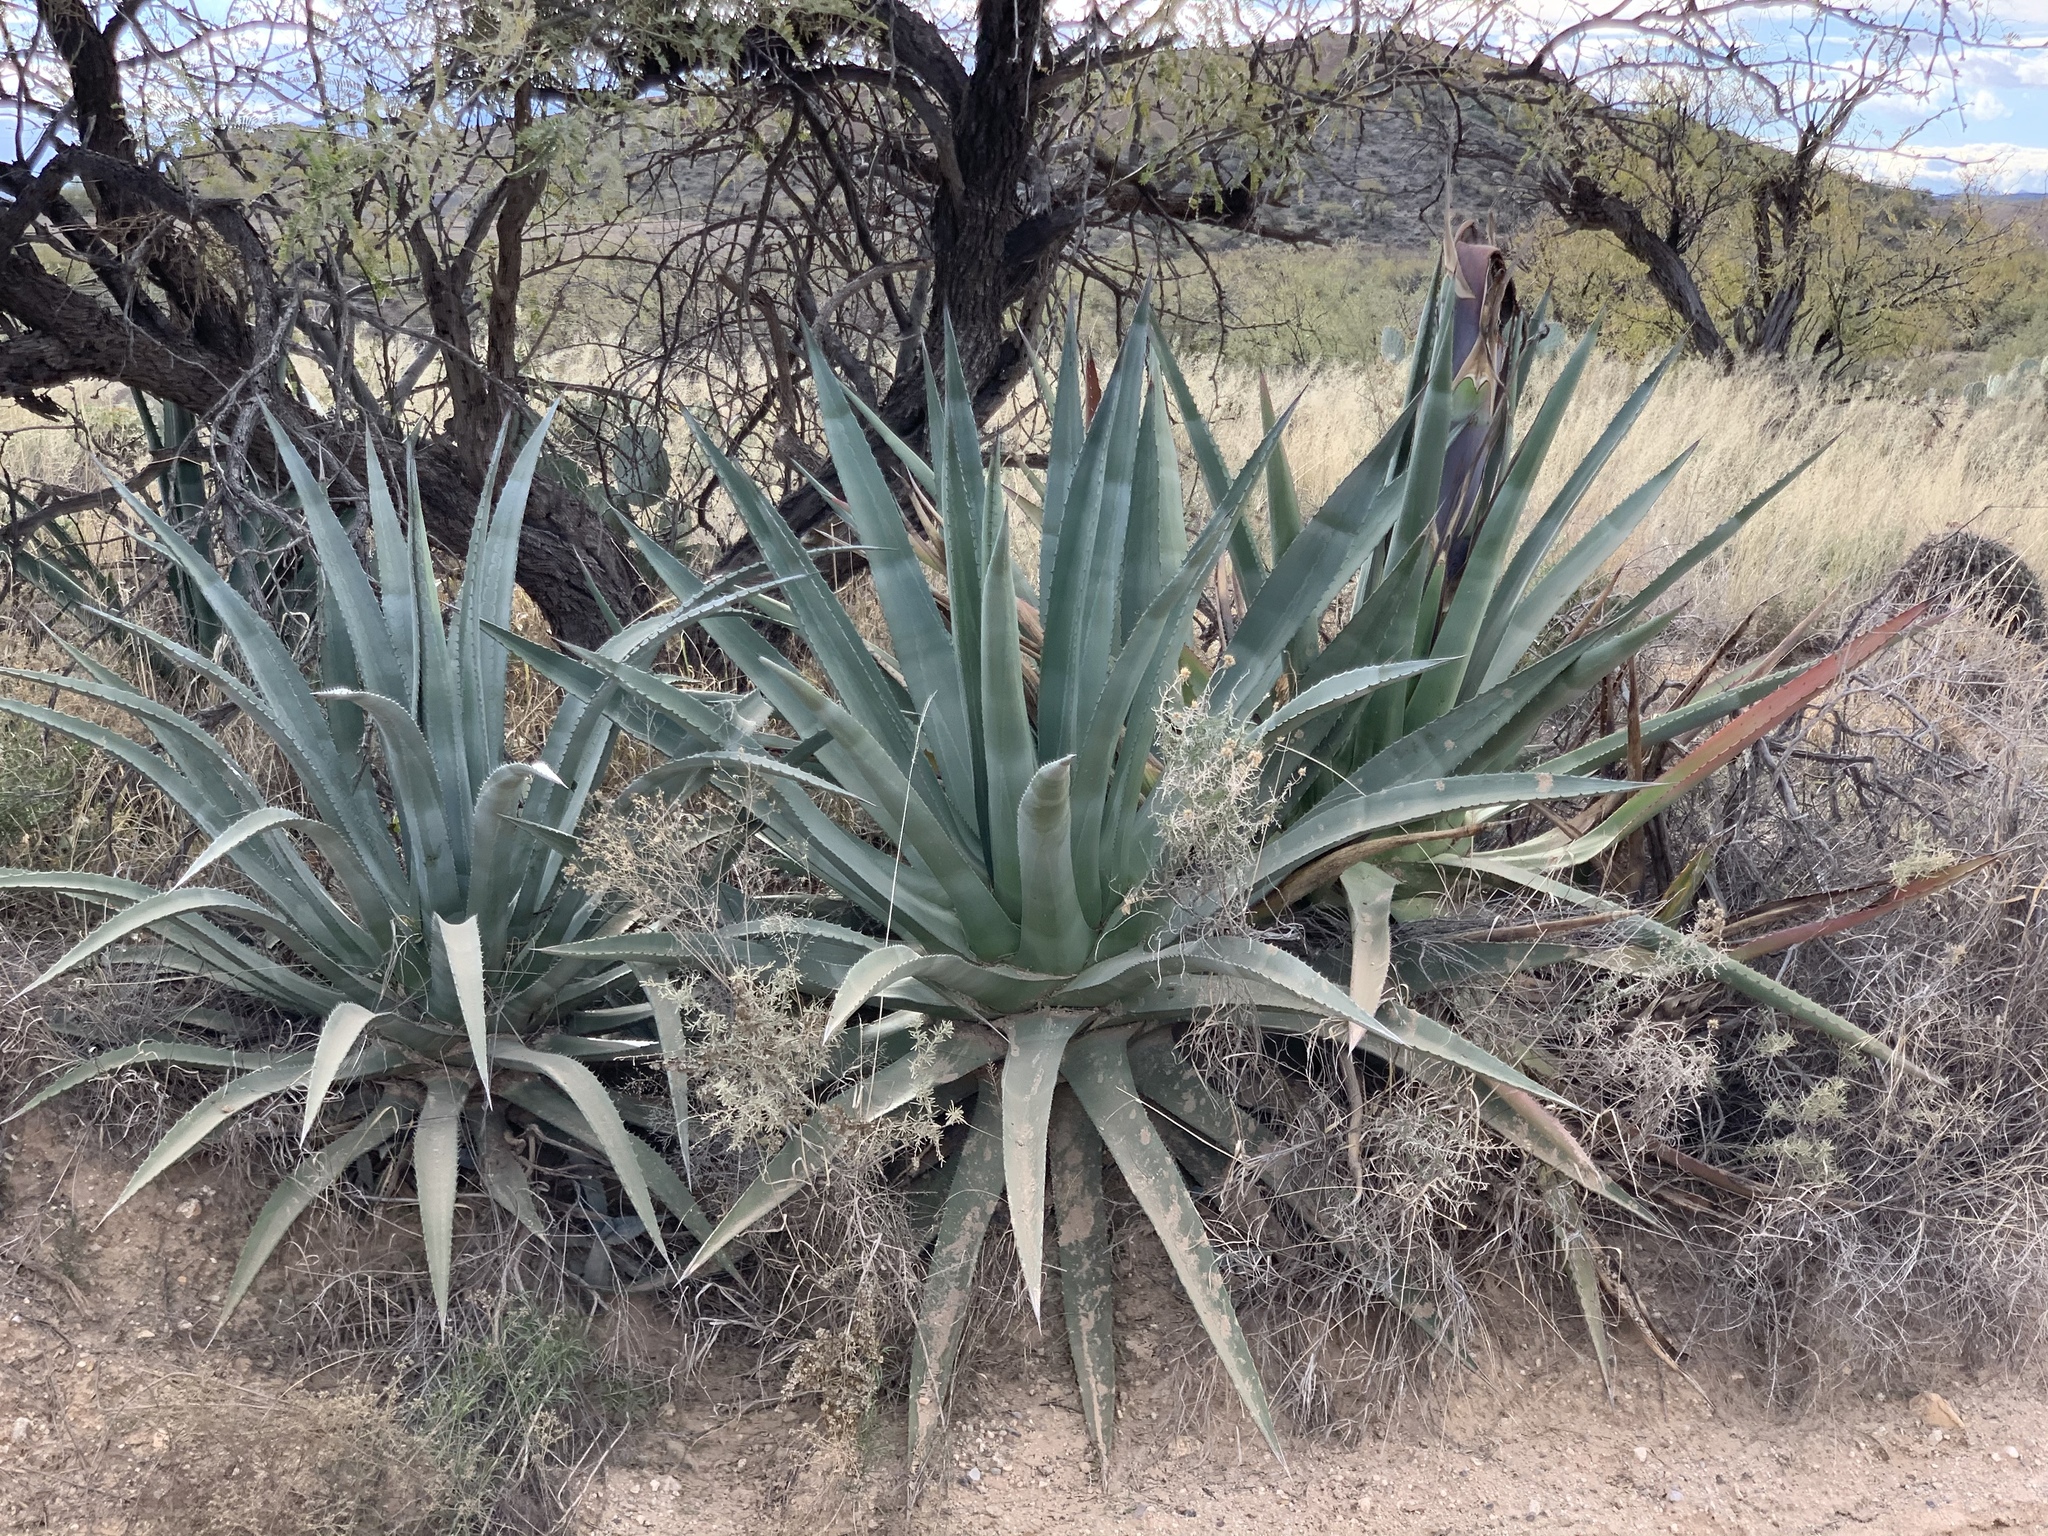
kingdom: Plantae
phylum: Tracheophyta
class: Liliopsida
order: Asparagales
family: Asparagaceae
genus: Agave
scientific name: Agave palmeri
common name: Palmer agave
